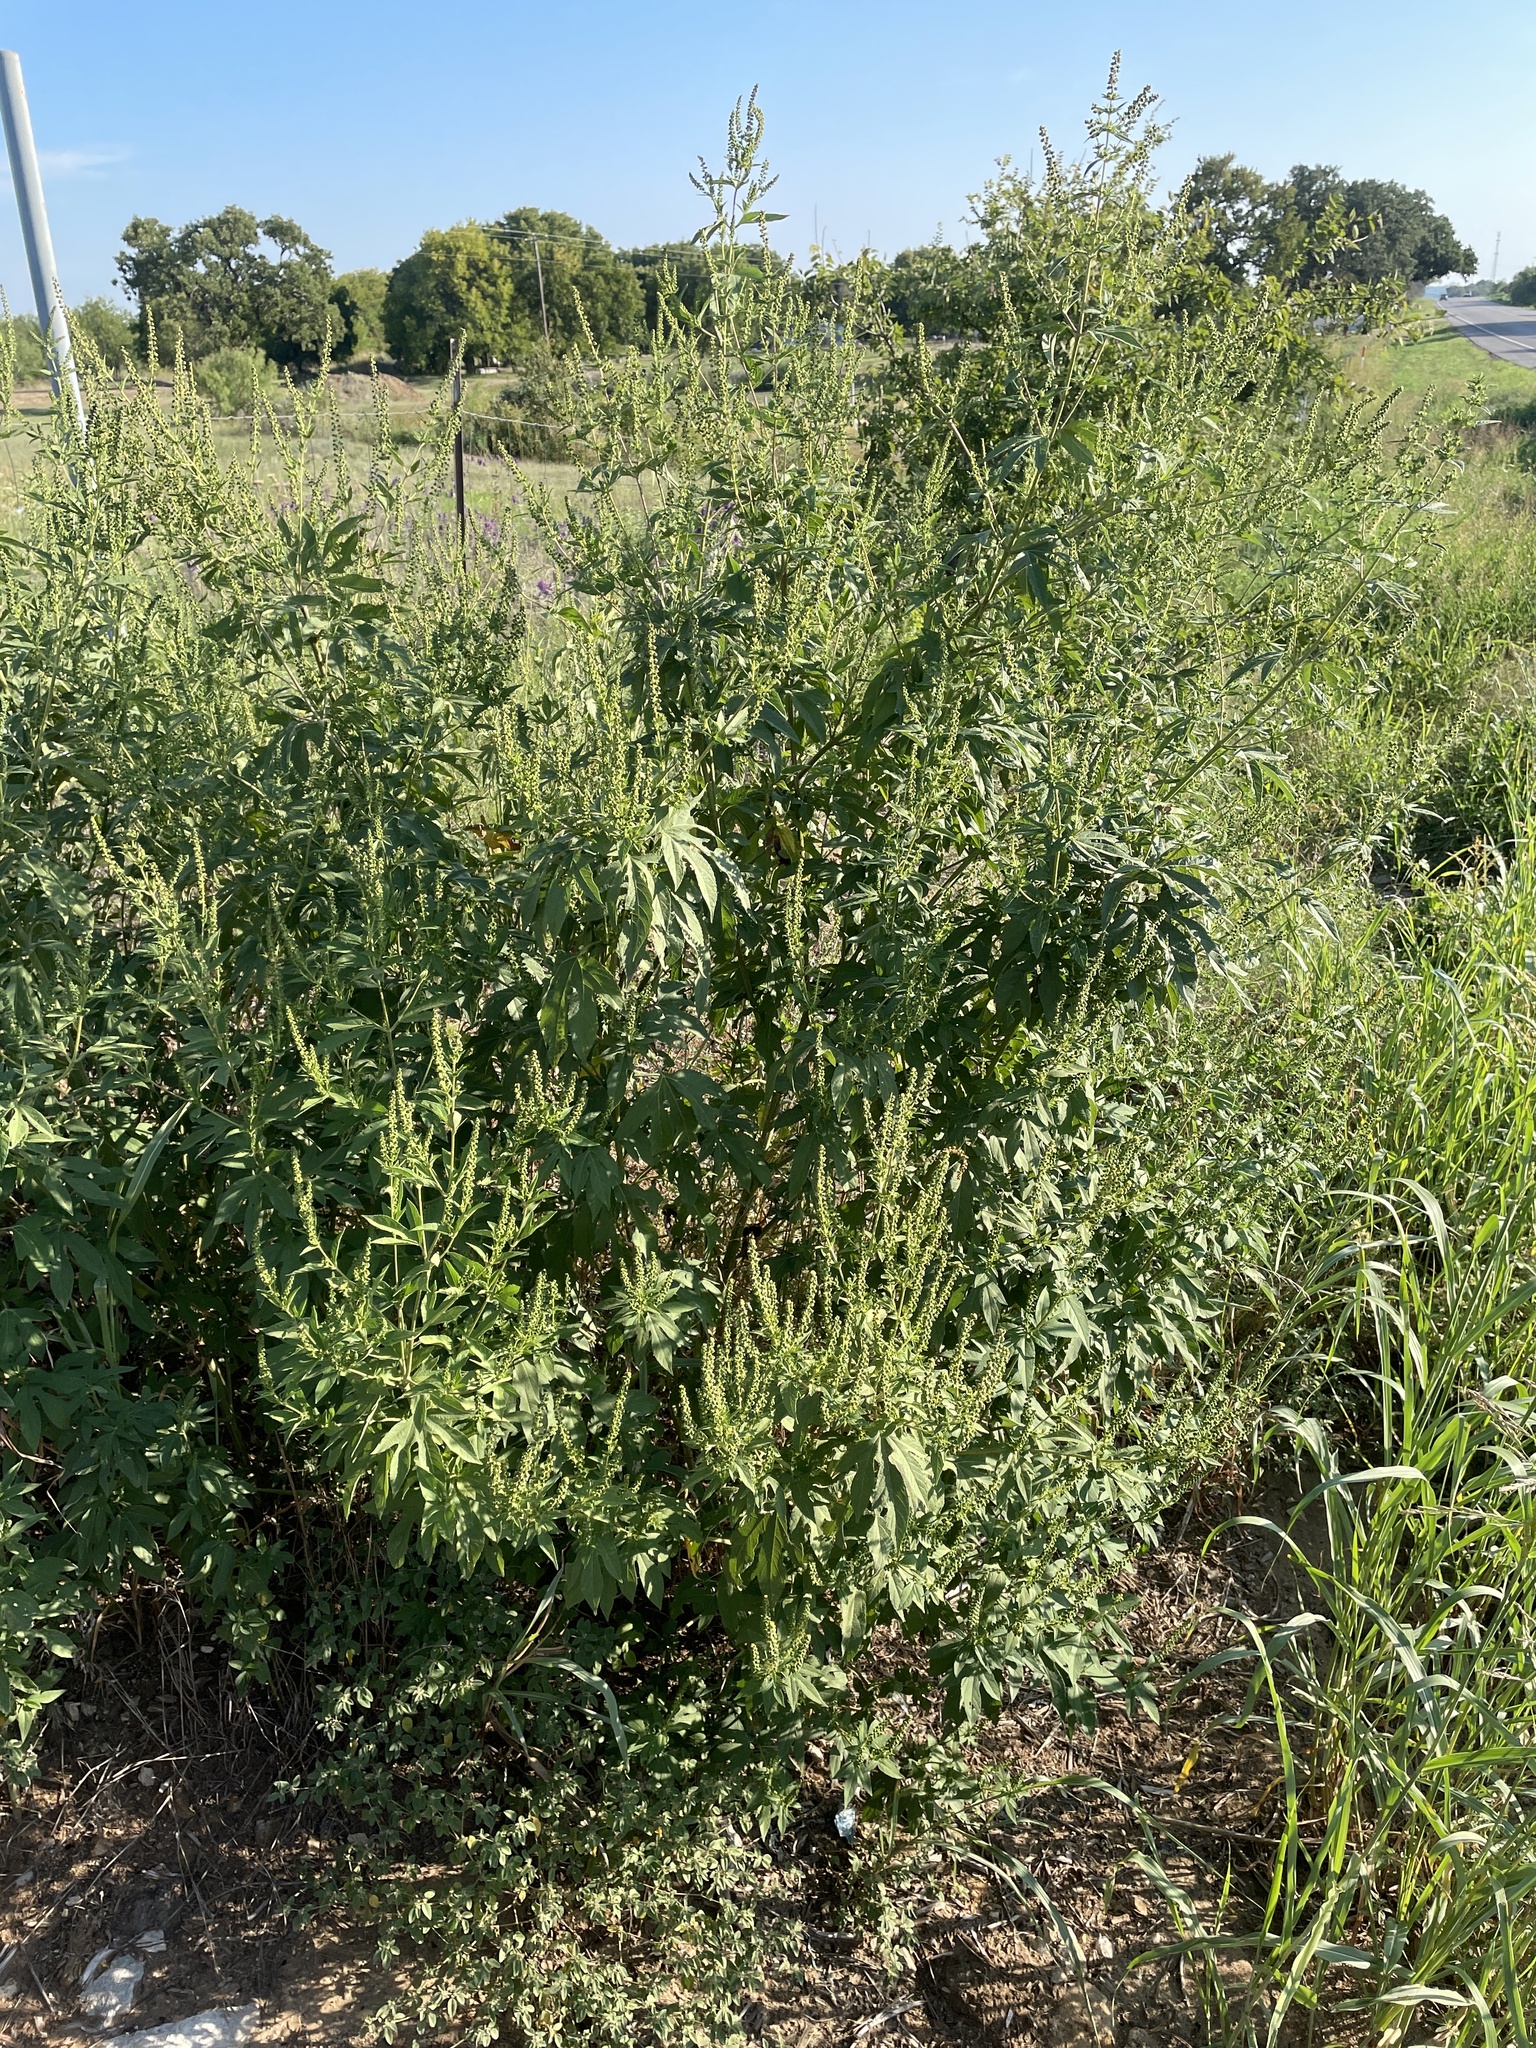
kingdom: Plantae
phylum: Tracheophyta
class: Magnoliopsida
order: Asterales
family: Asteraceae
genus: Ambrosia
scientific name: Ambrosia trifida
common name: Giant ragweed
